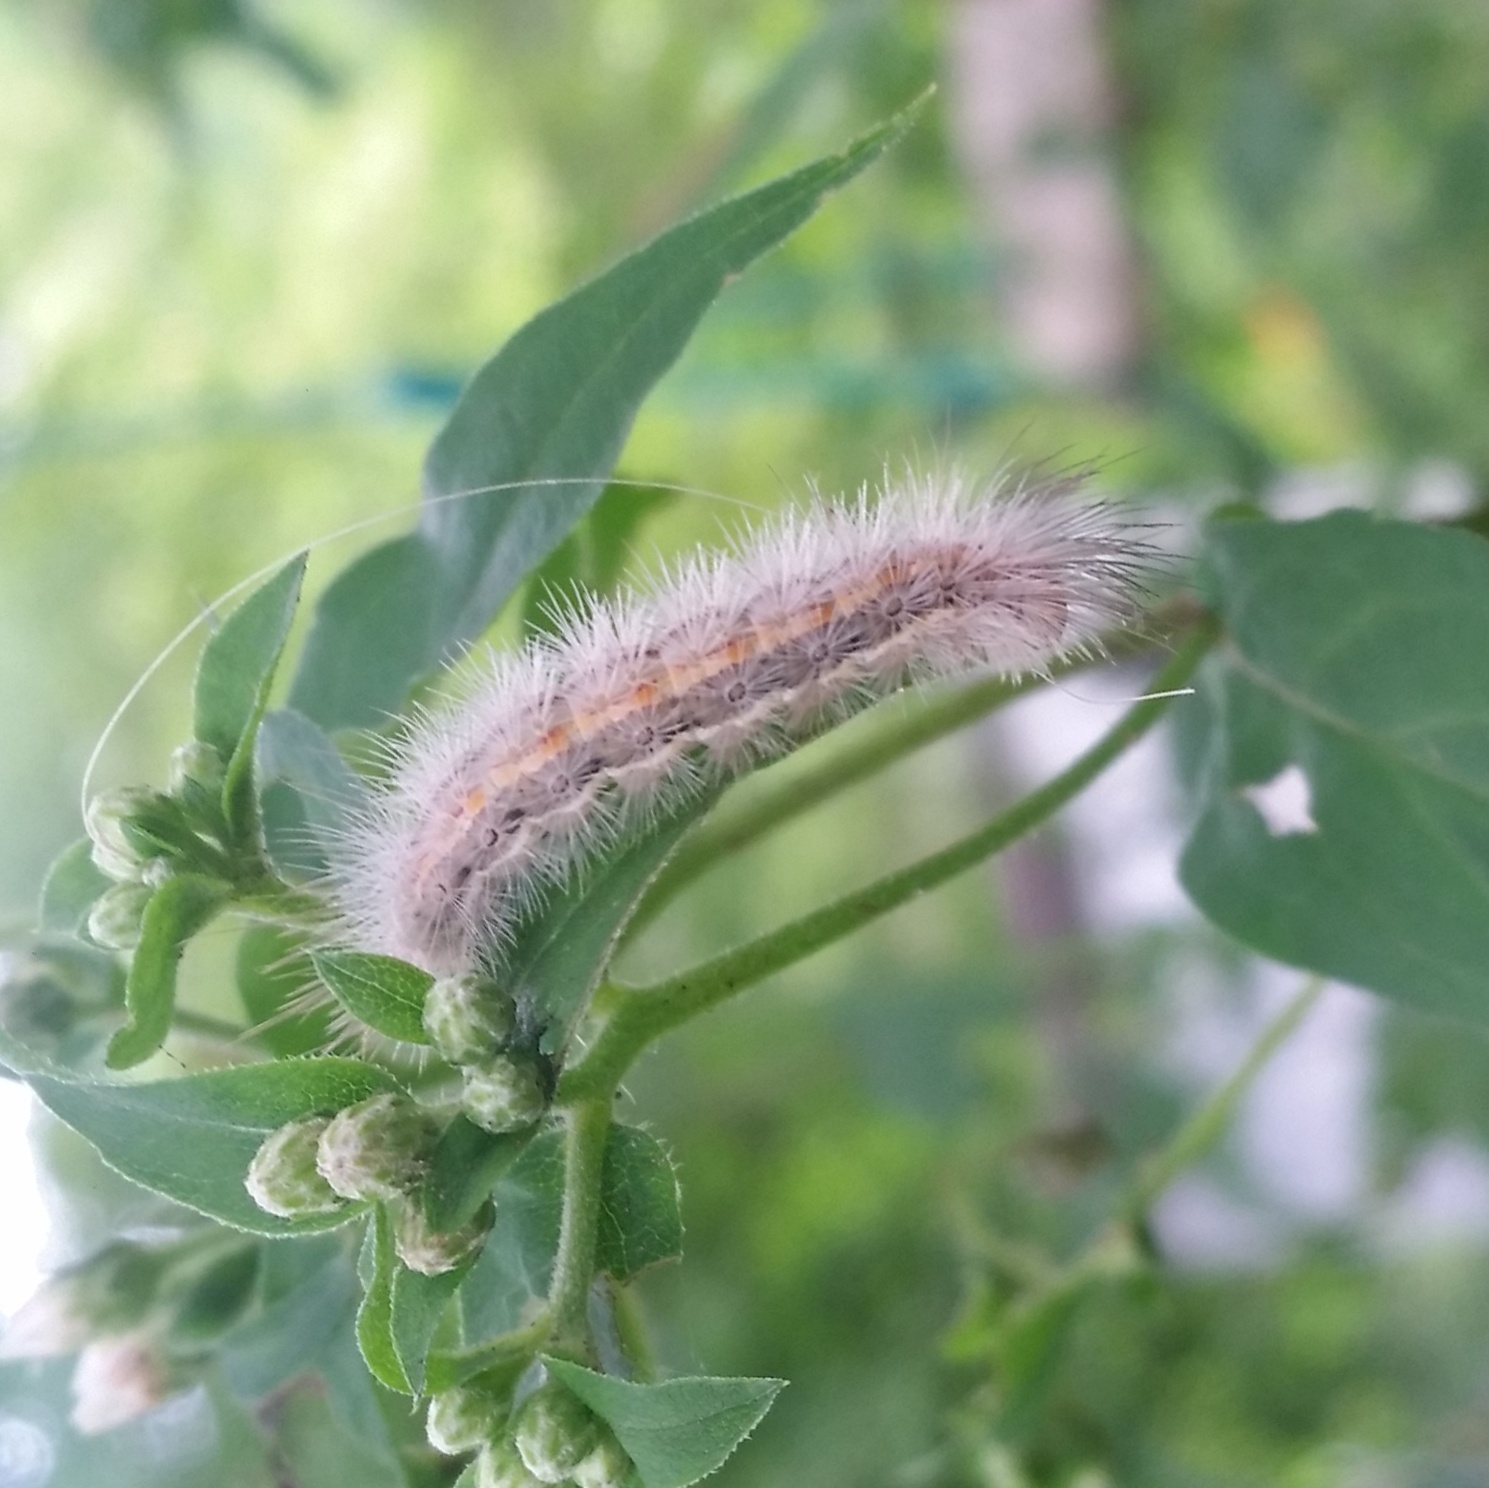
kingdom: Animalia
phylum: Arthropoda
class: Insecta
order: Lepidoptera
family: Erebidae
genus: Cisseps
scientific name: Cisseps fulvicollis
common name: Yellow-collared scape moth
